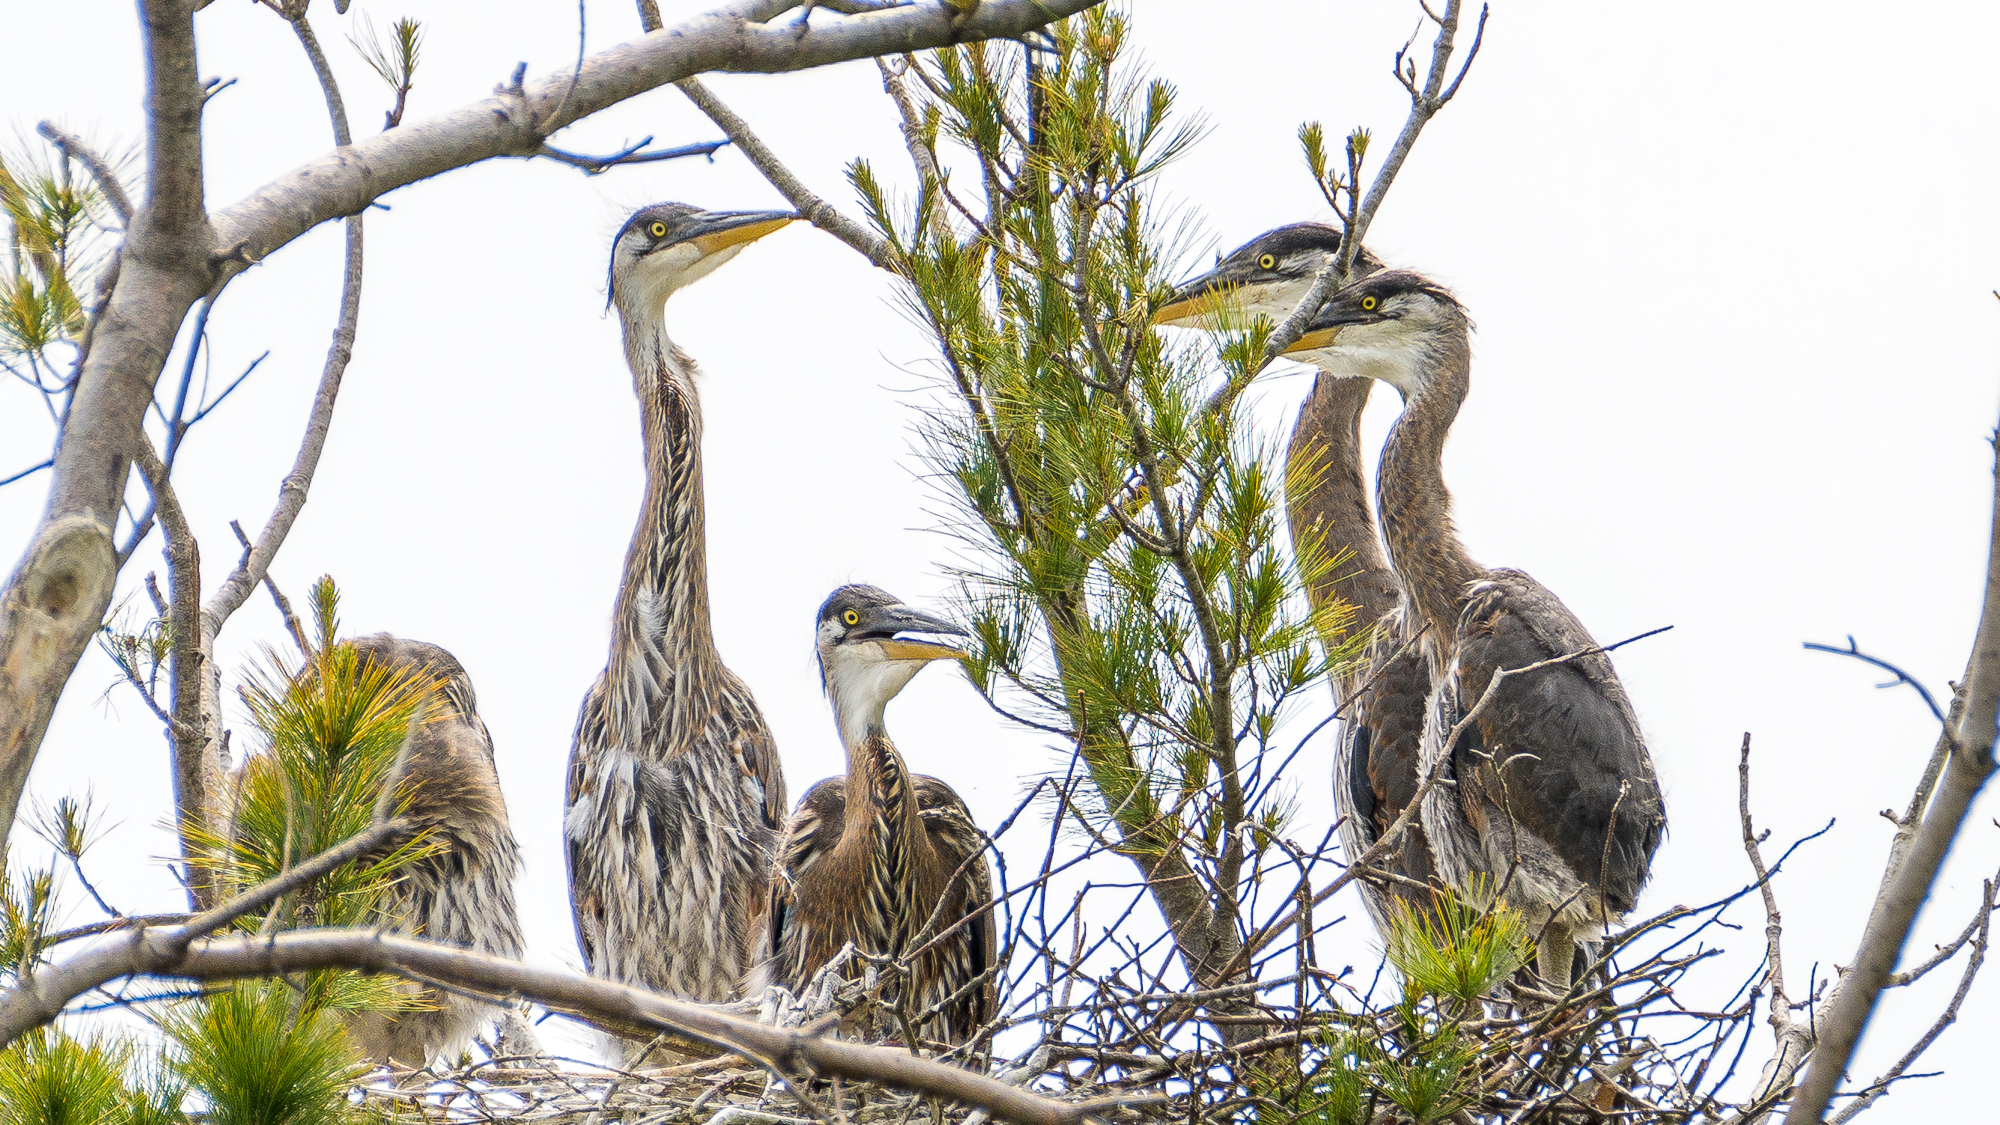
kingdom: Animalia
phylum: Chordata
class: Aves
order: Pelecaniformes
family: Ardeidae
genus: Ardea
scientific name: Ardea herodias
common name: Great blue heron
